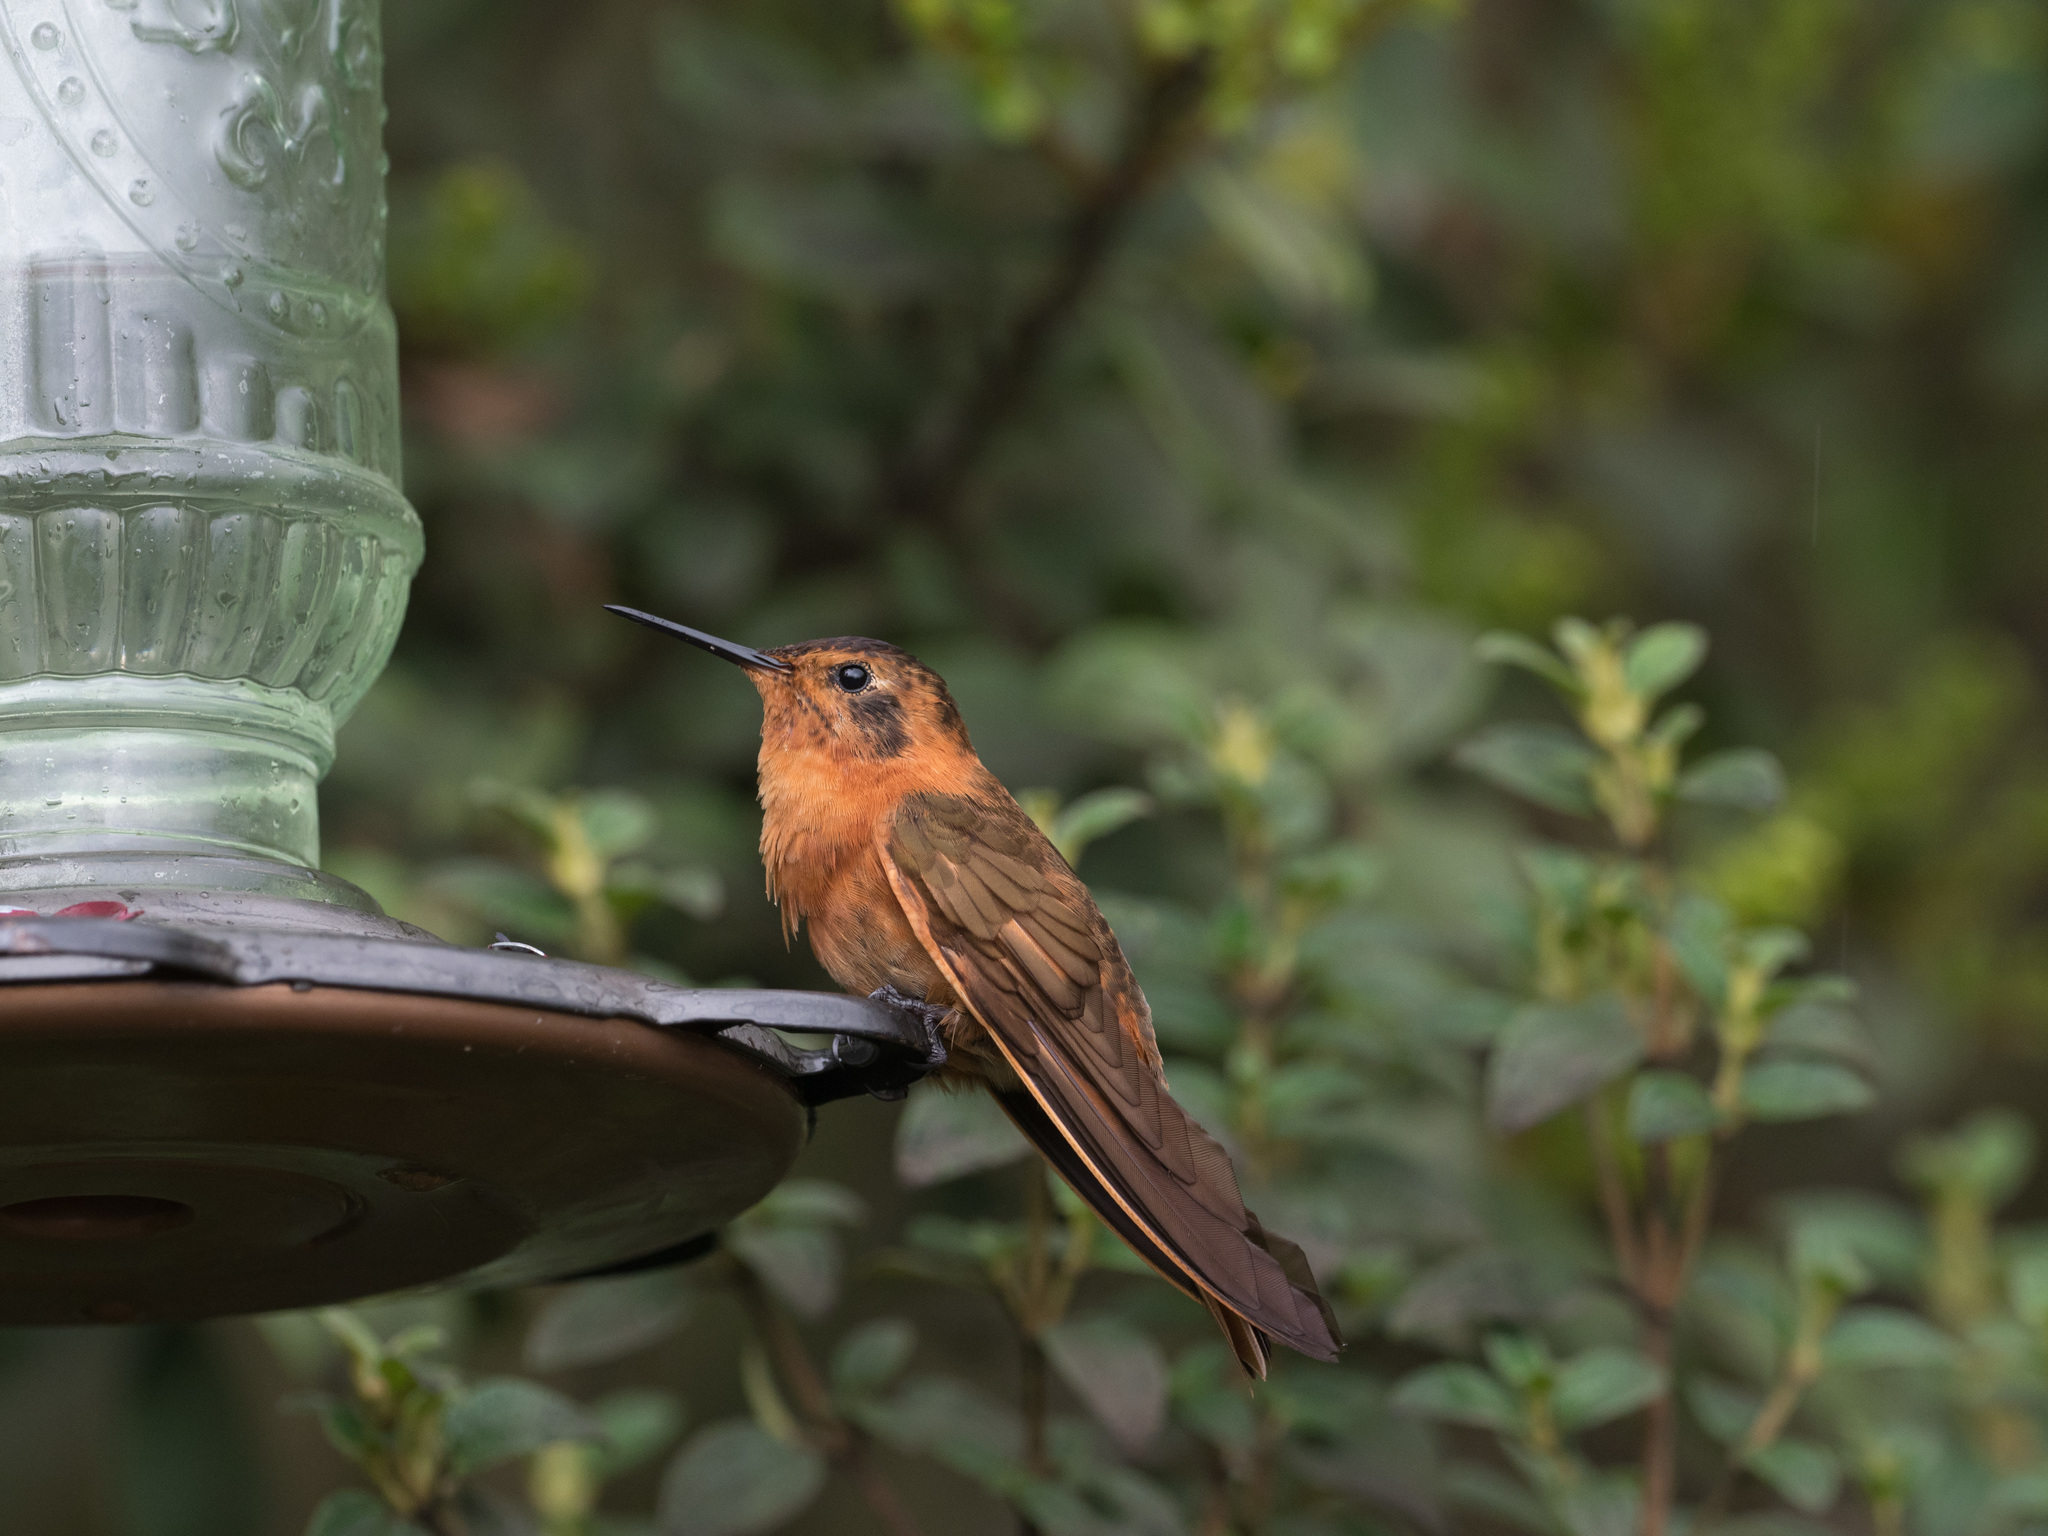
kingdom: Animalia
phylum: Chordata
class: Aves
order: Apodiformes
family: Trochilidae
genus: Aglaeactis
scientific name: Aglaeactis cupripennis
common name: Shining sunbeam
